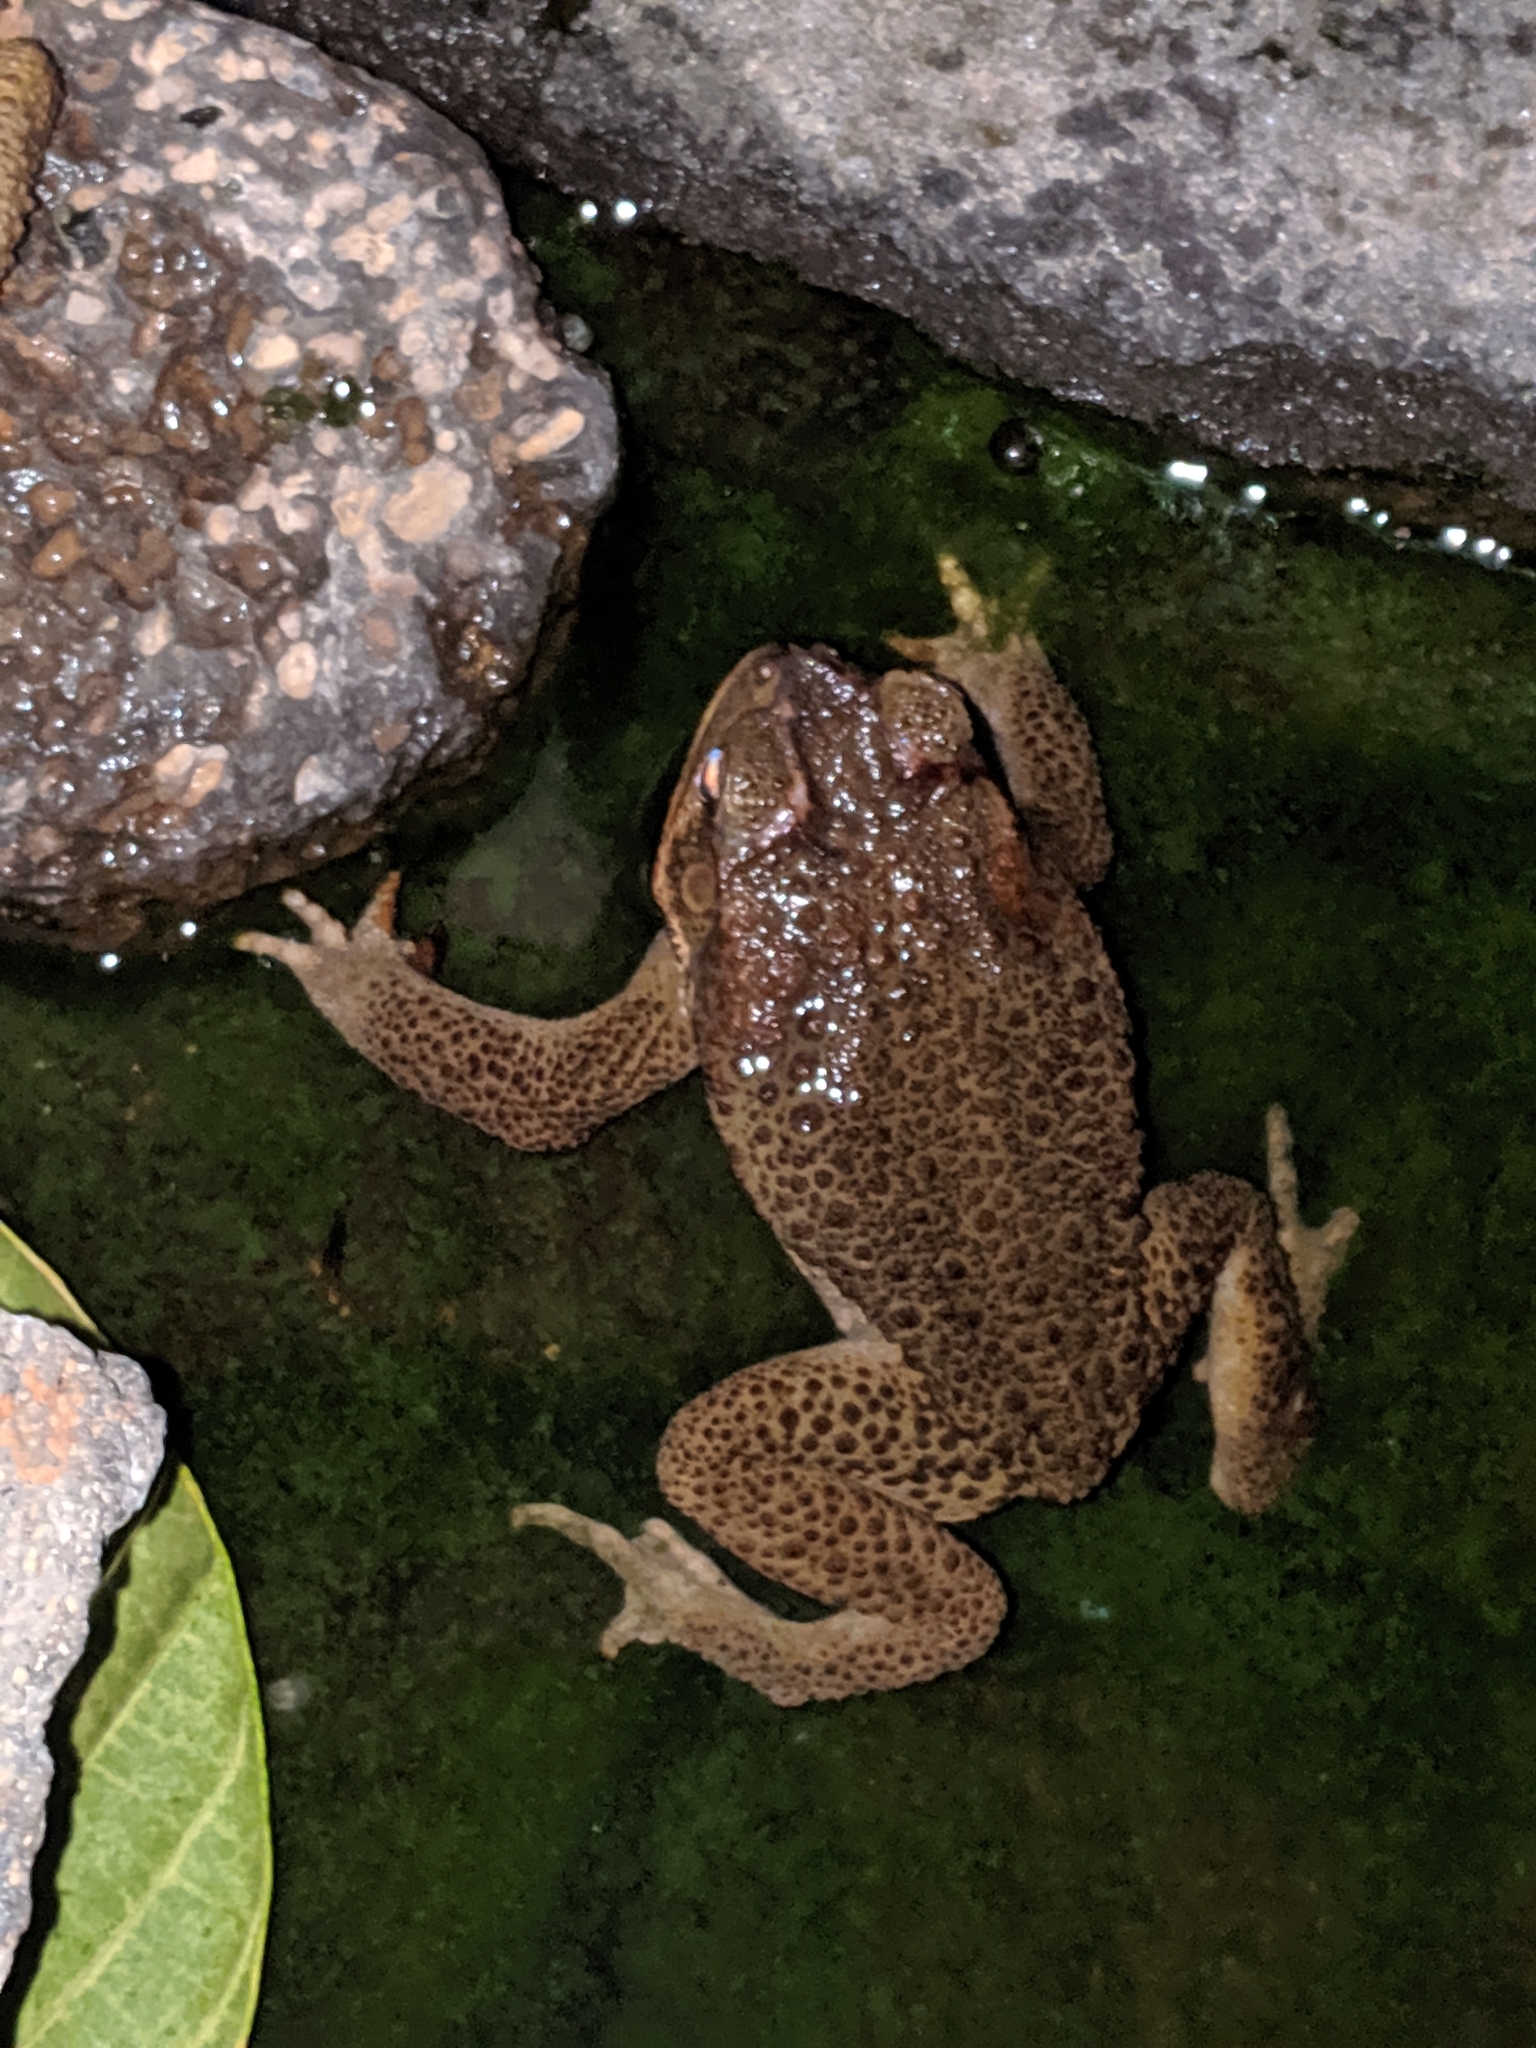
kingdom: Animalia
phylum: Chordata
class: Amphibia
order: Anura
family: Bufonidae
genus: Rhinella
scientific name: Rhinella marina
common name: Cane toad
